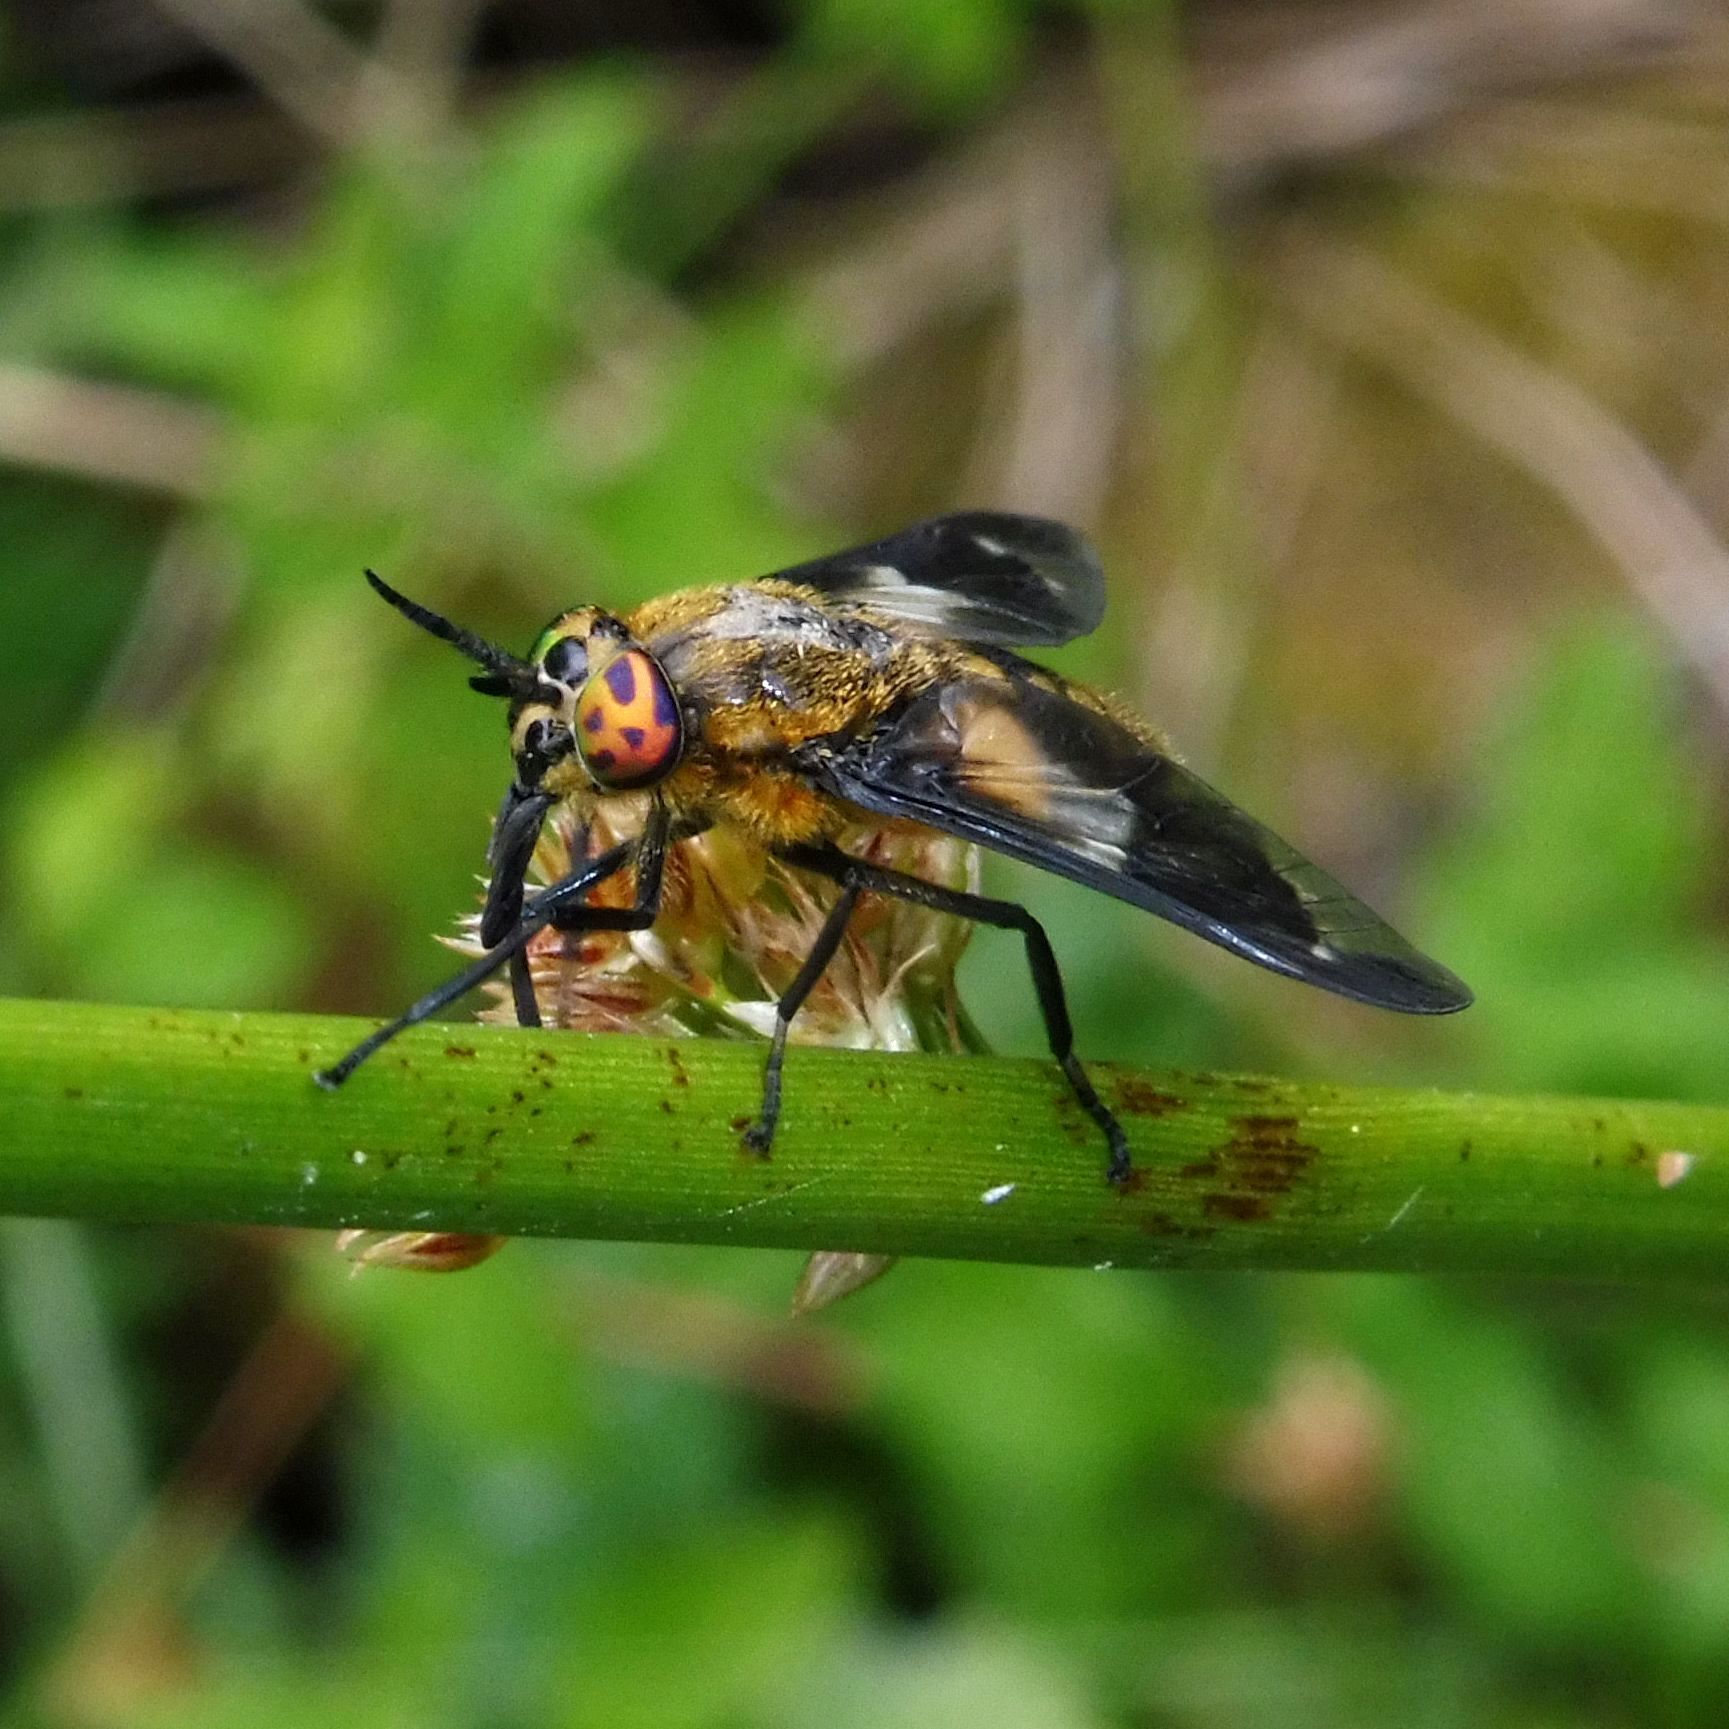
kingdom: Animalia
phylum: Arthropoda
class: Insecta
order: Diptera
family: Tabanidae
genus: Chrysops
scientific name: Chrysops caecutiens
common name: Splayed deerfly
